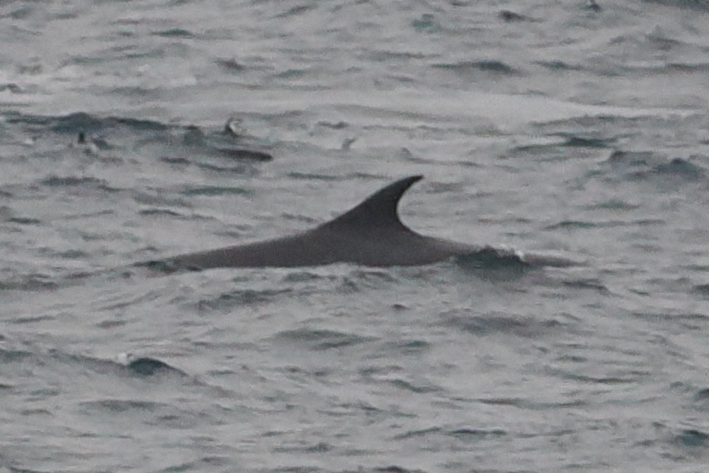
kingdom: Animalia
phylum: Chordata
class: Mammalia
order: Cetacea
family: Balaenopteridae
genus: Balaenoptera
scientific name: Balaenoptera physalus
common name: Fin whale
